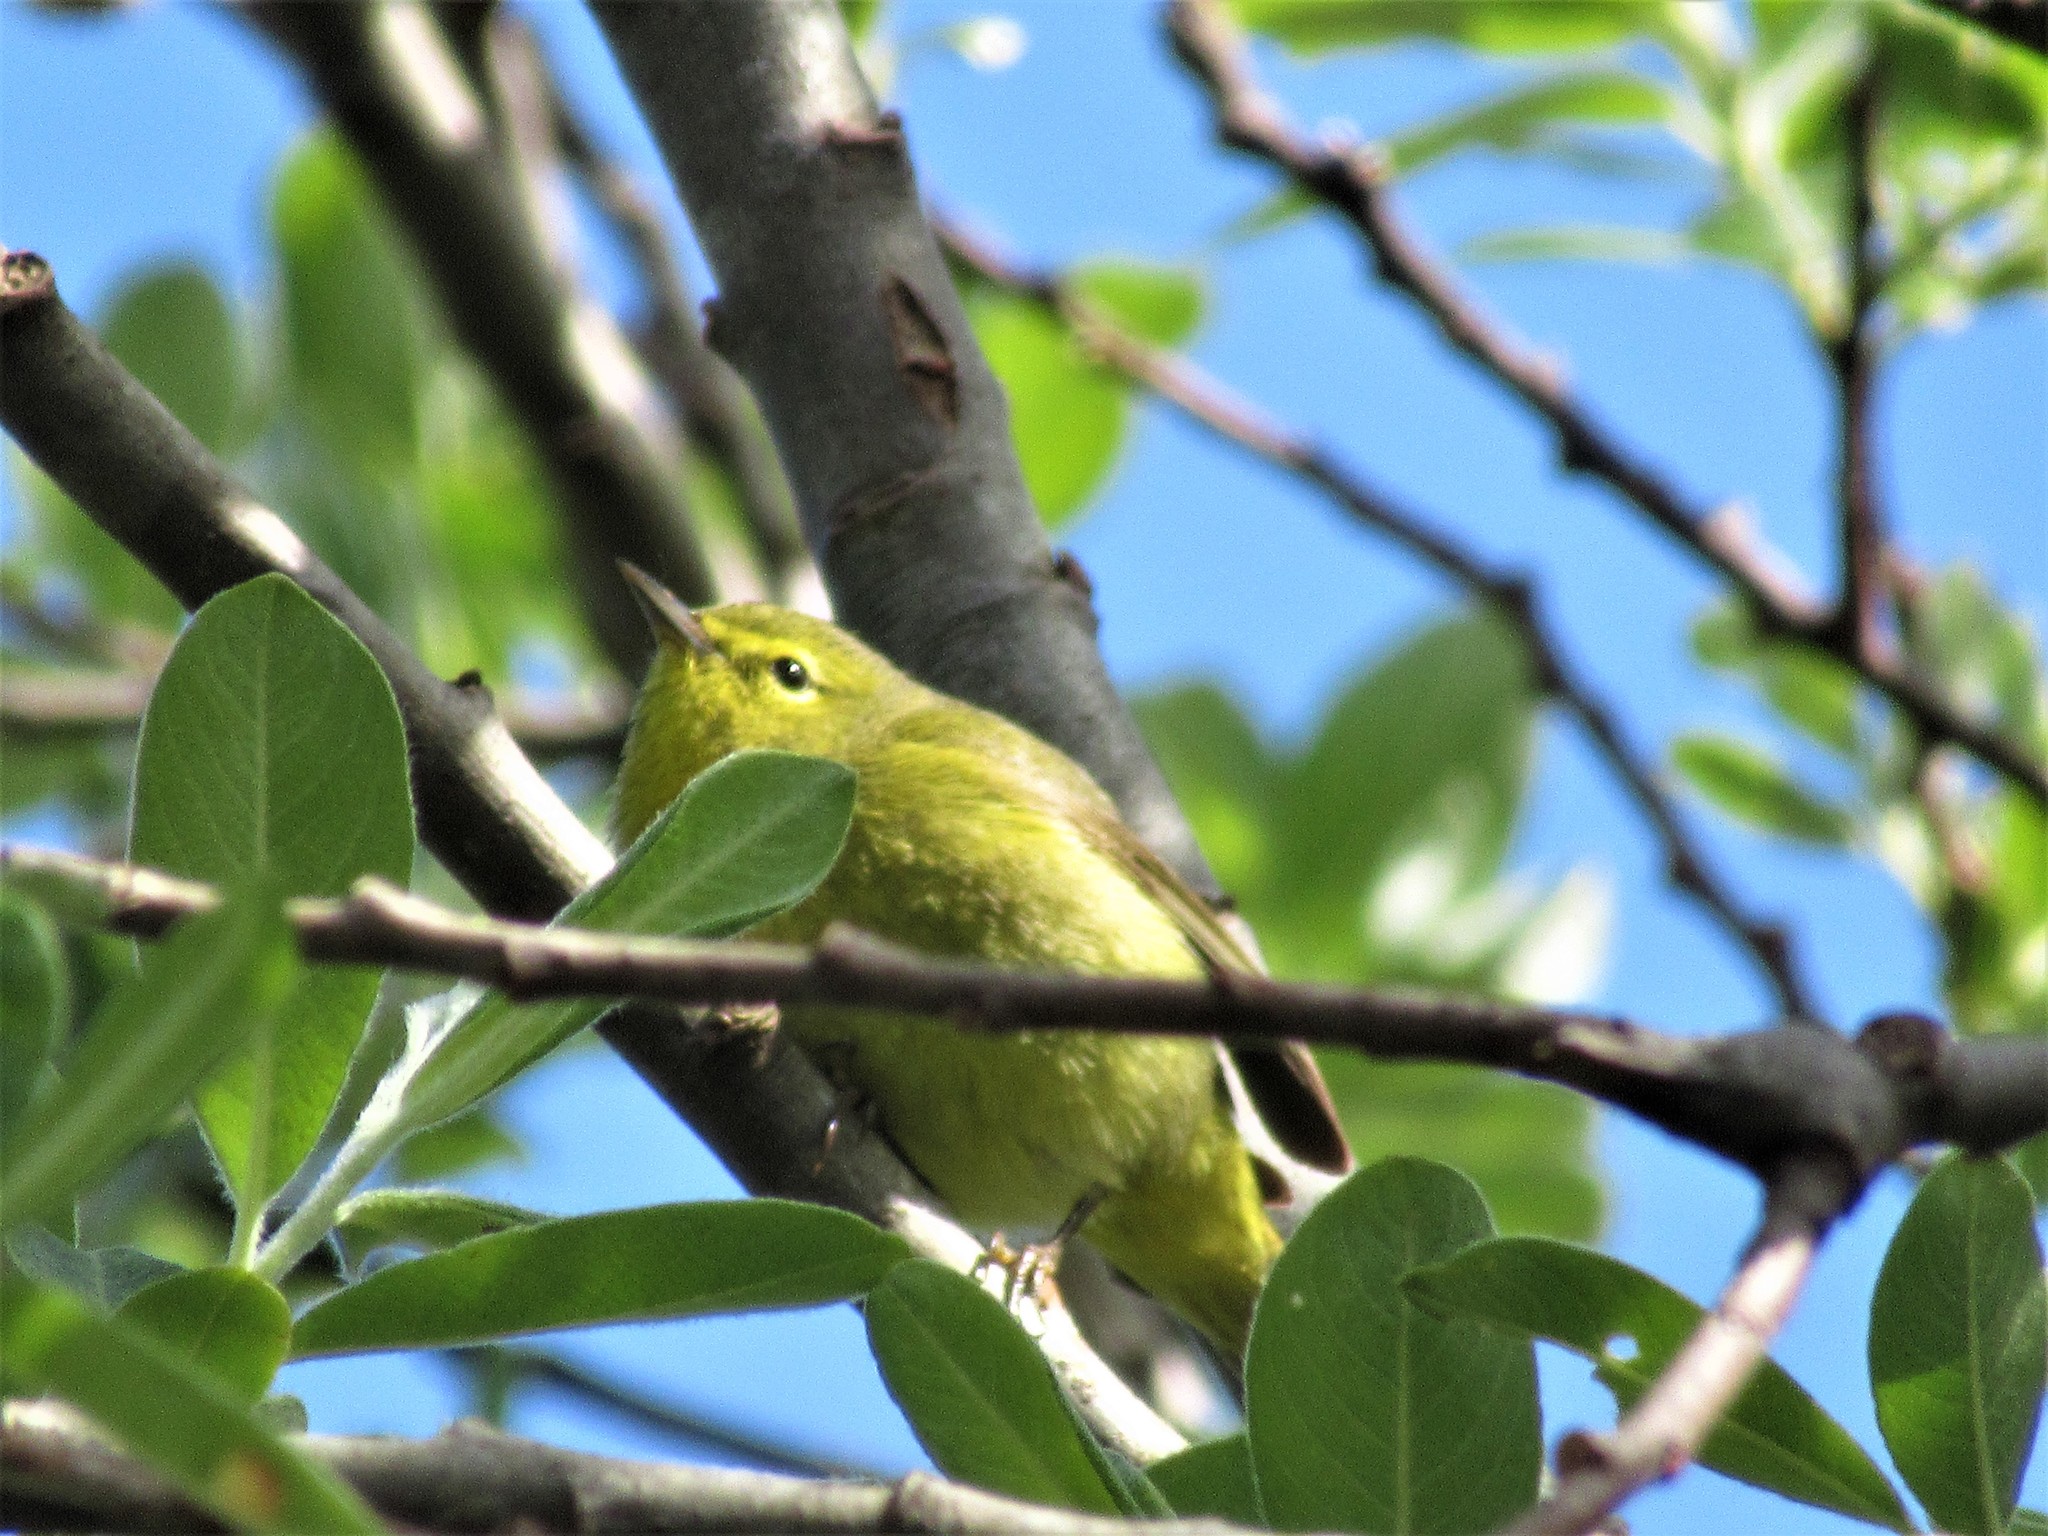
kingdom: Animalia
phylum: Chordata
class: Aves
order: Passeriformes
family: Parulidae
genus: Leiothlypis
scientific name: Leiothlypis celata
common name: Orange-crowned warbler
